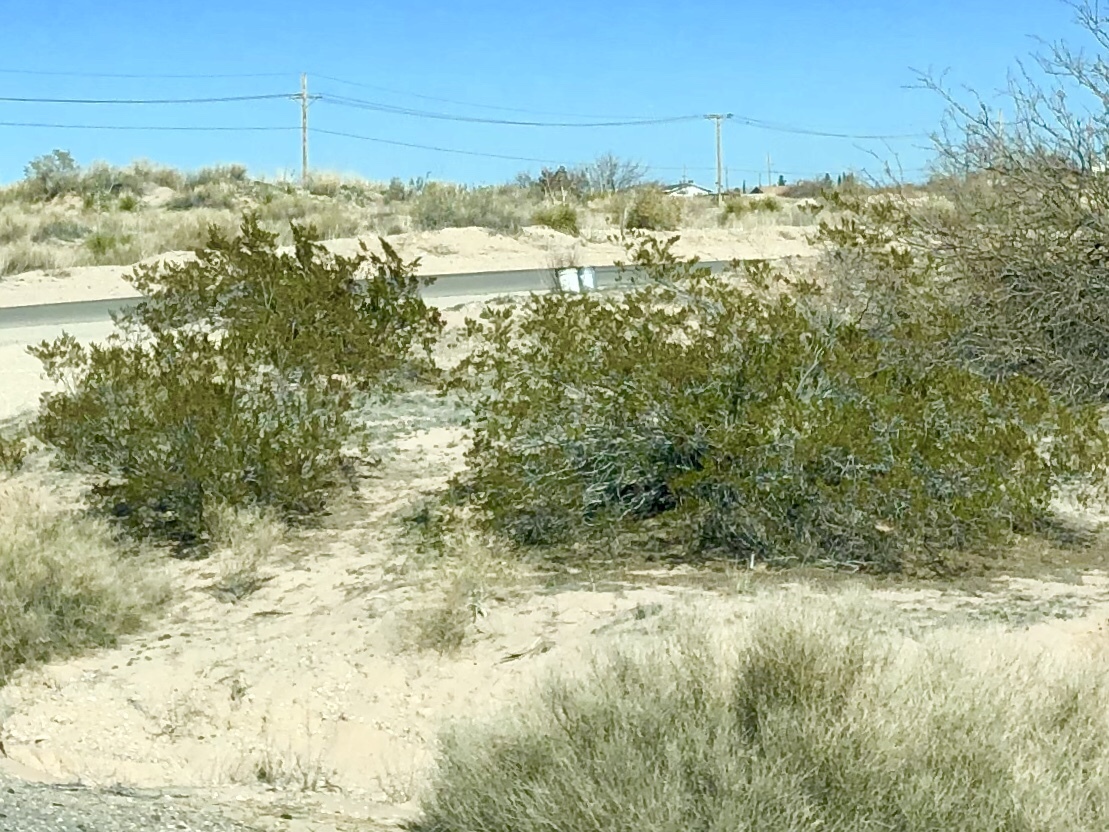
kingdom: Plantae
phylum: Tracheophyta
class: Magnoliopsida
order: Zygophyllales
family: Zygophyllaceae
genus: Larrea
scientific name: Larrea tridentata
